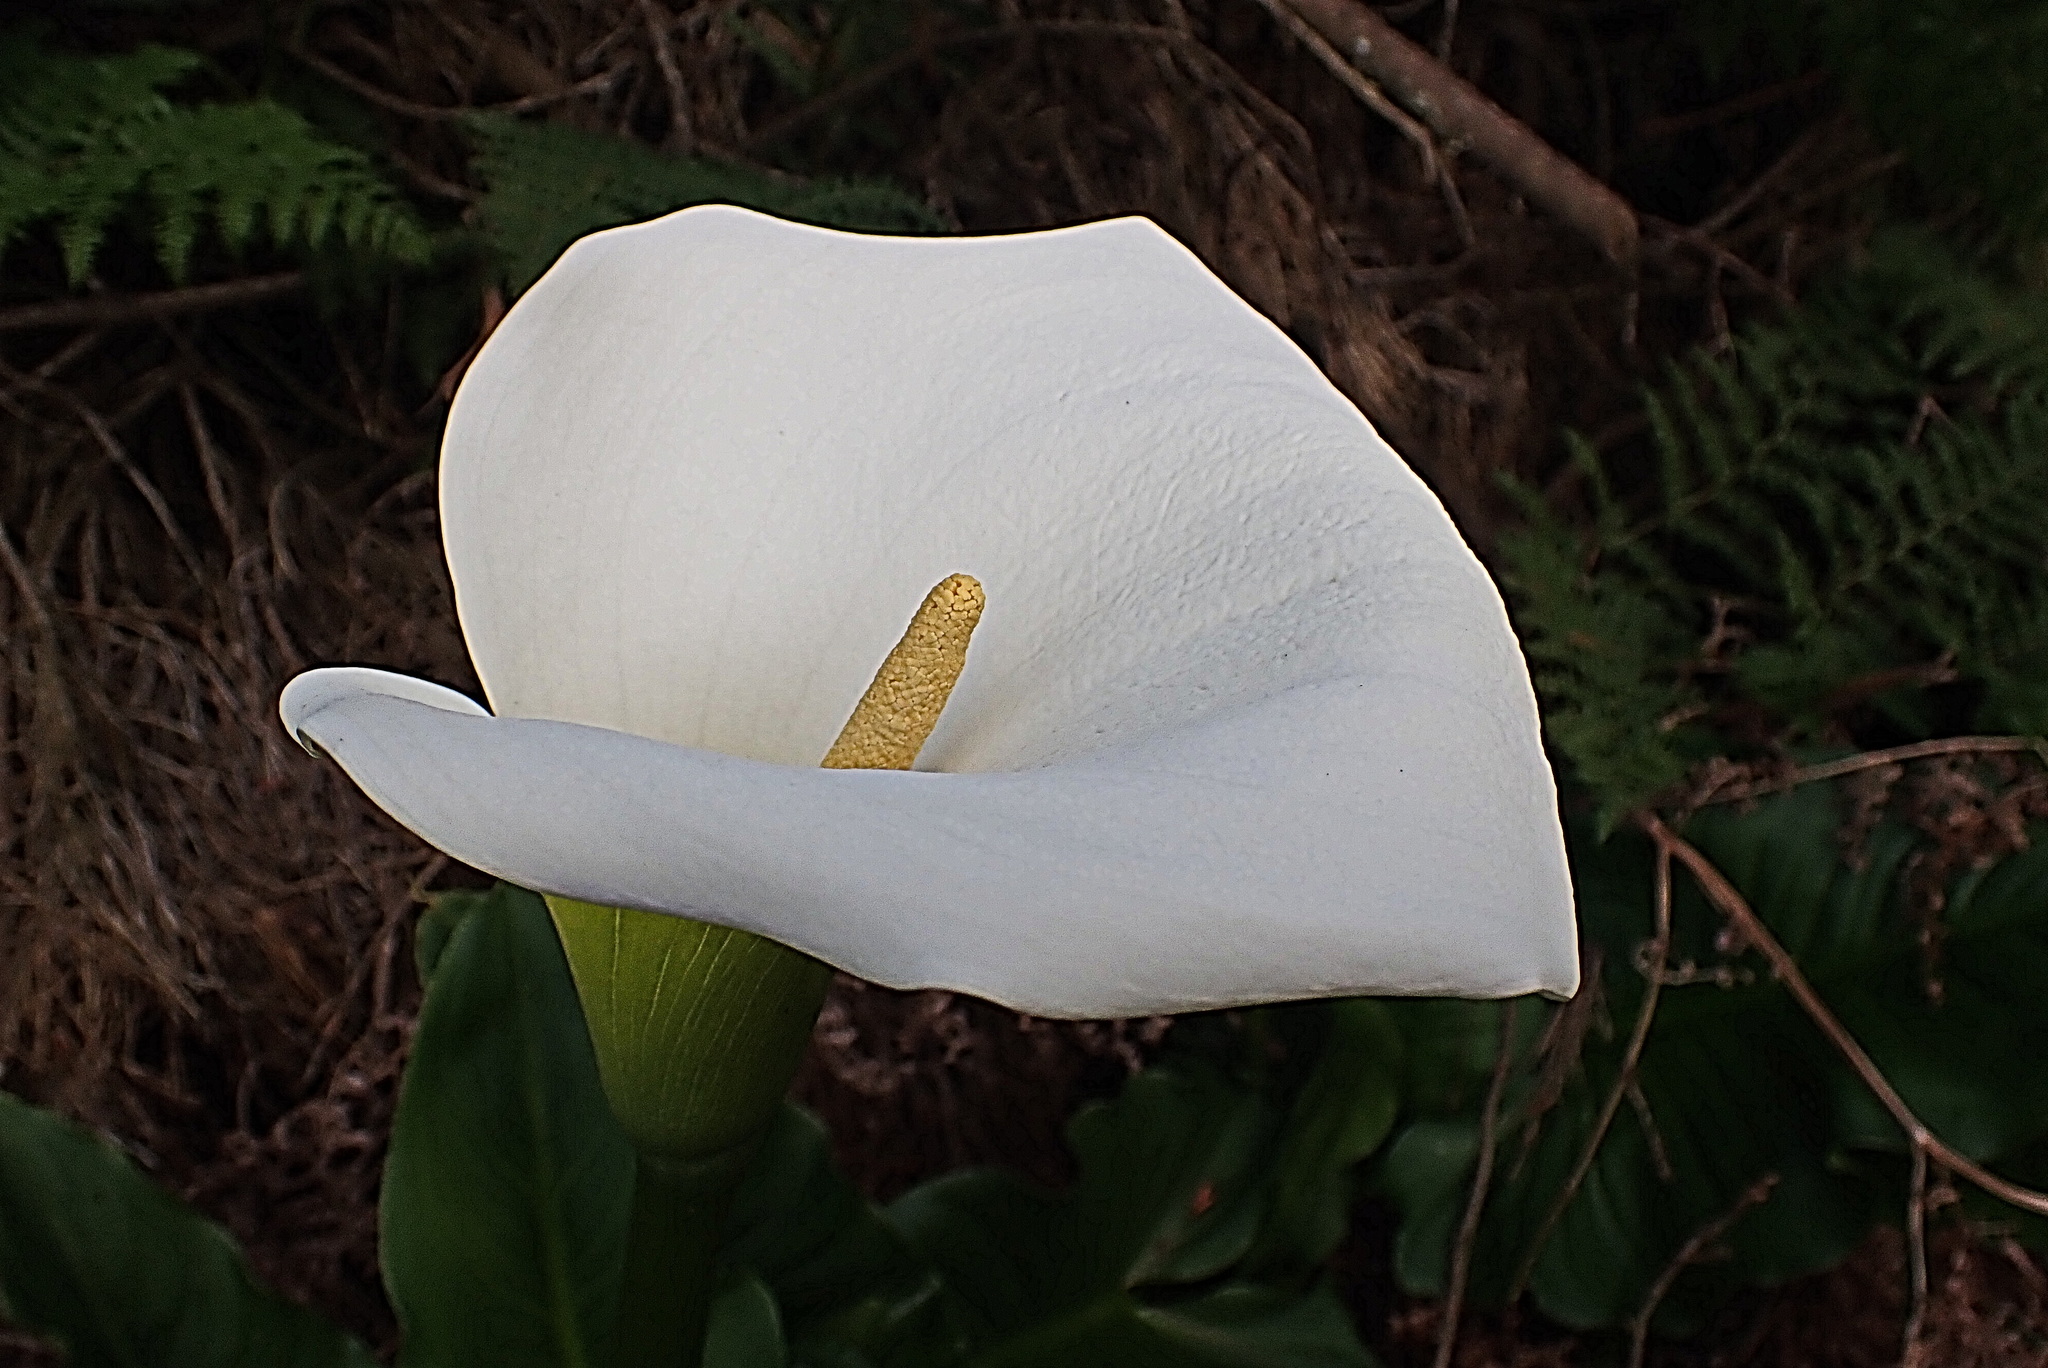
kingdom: Plantae
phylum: Tracheophyta
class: Liliopsida
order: Alismatales
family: Araceae
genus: Zantedeschia
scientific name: Zantedeschia aethiopica
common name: Altar-lily
